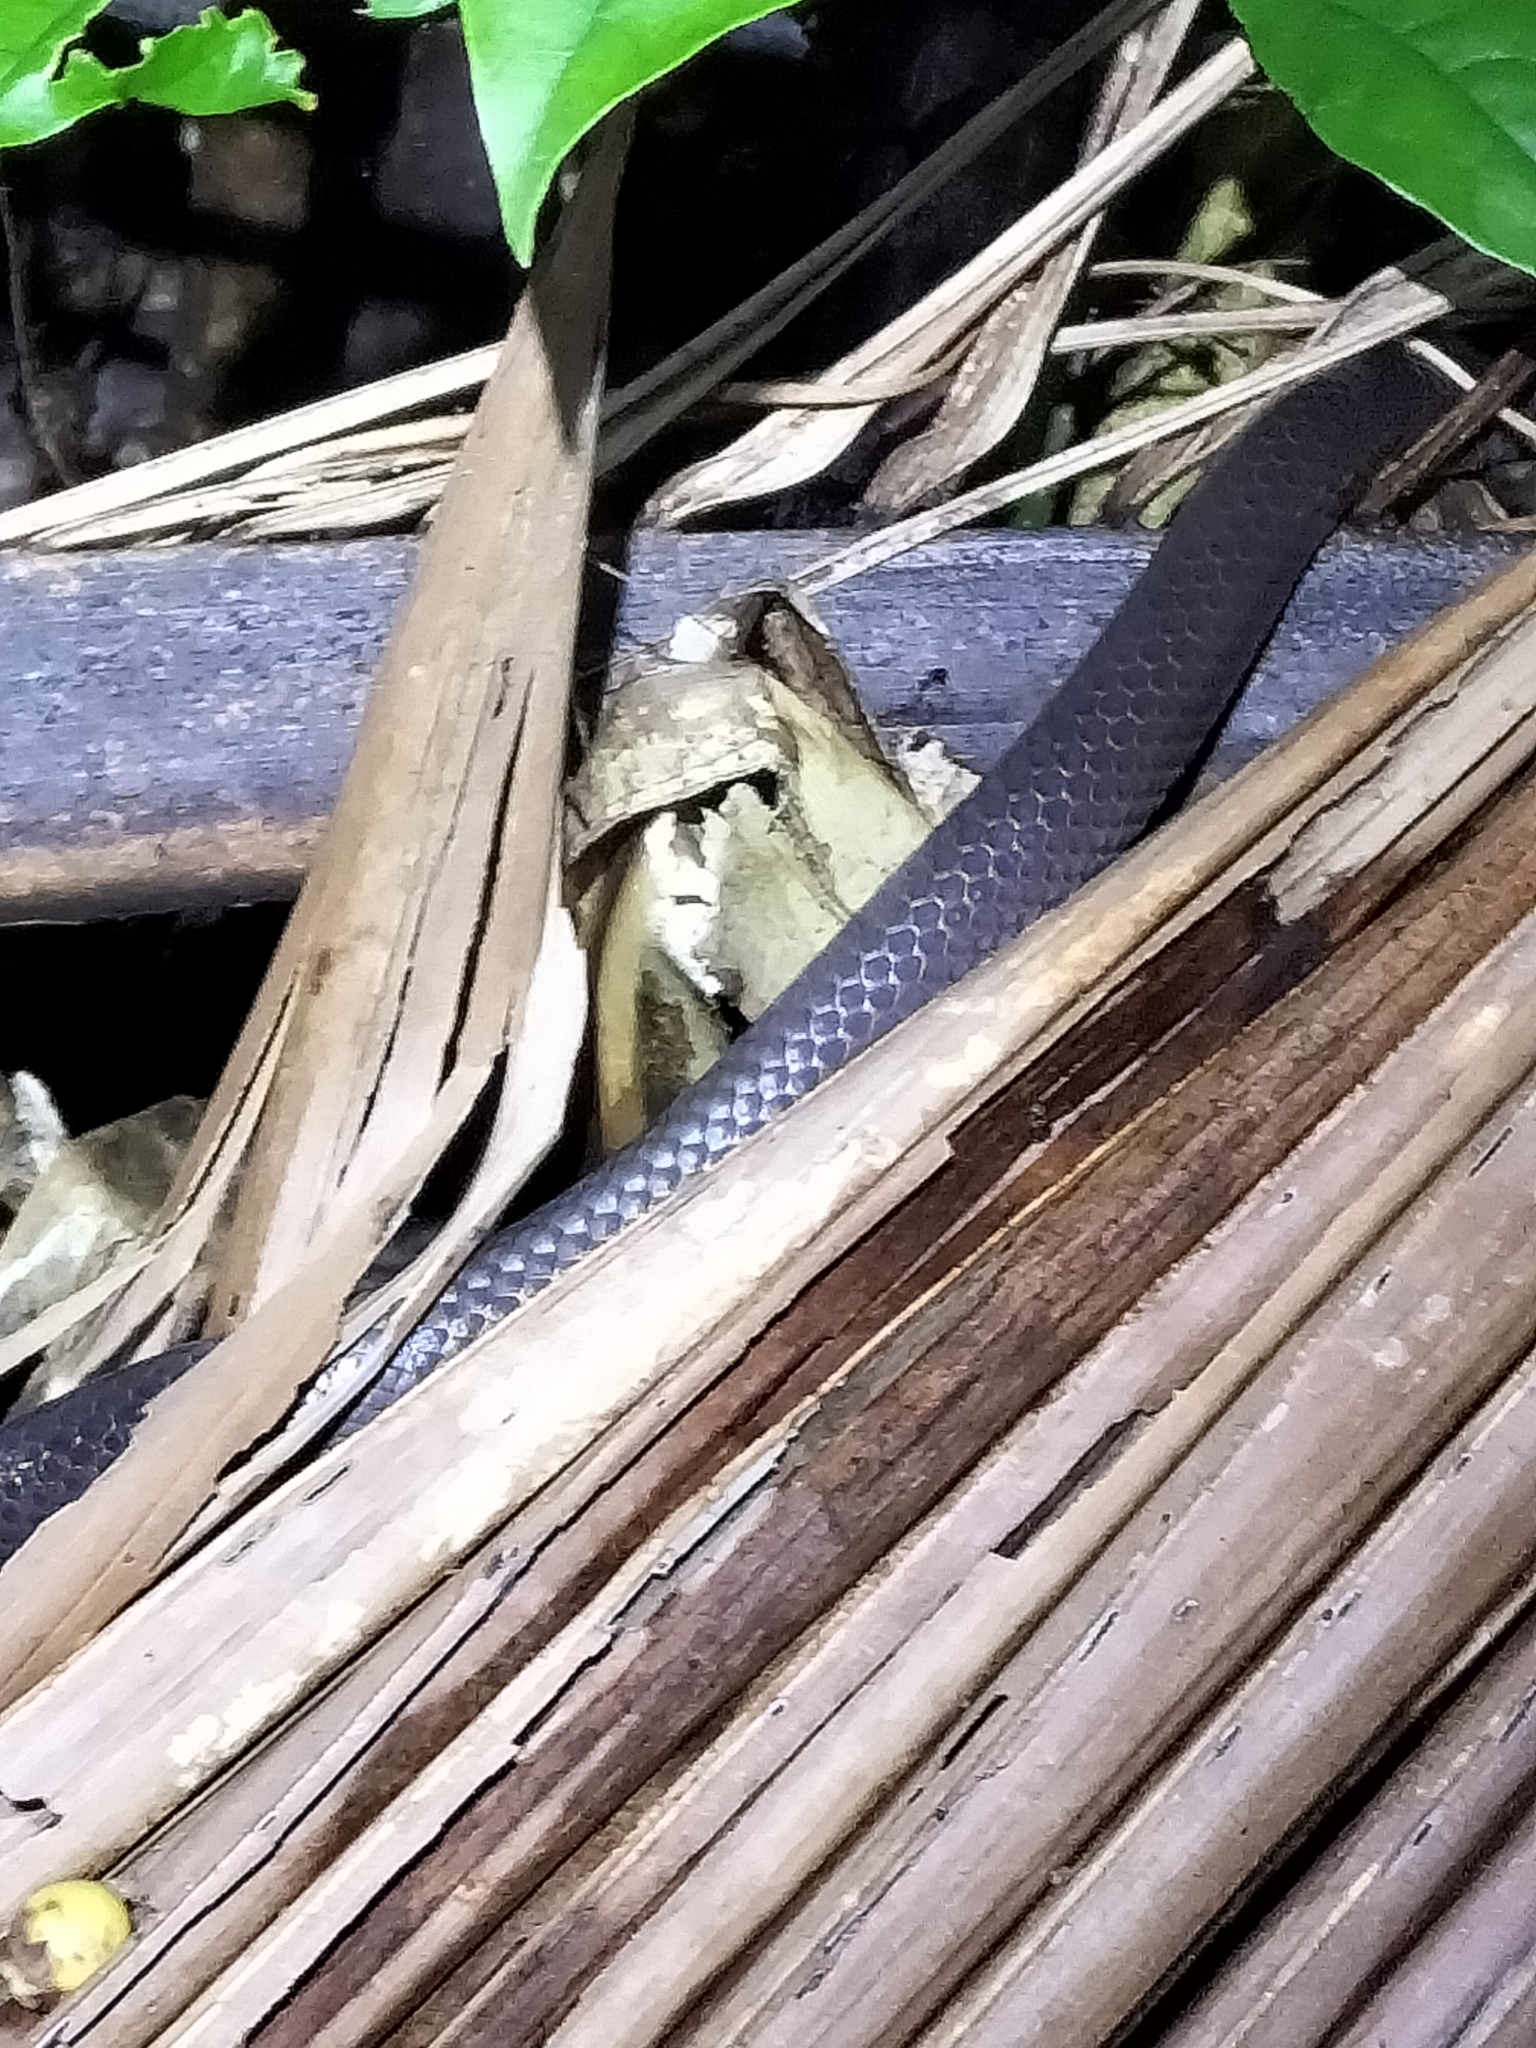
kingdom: Animalia
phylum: Chordata
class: Squamata
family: Colubridae
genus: Stegonotus
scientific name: Stegonotus australis
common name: Australian groundsnake
